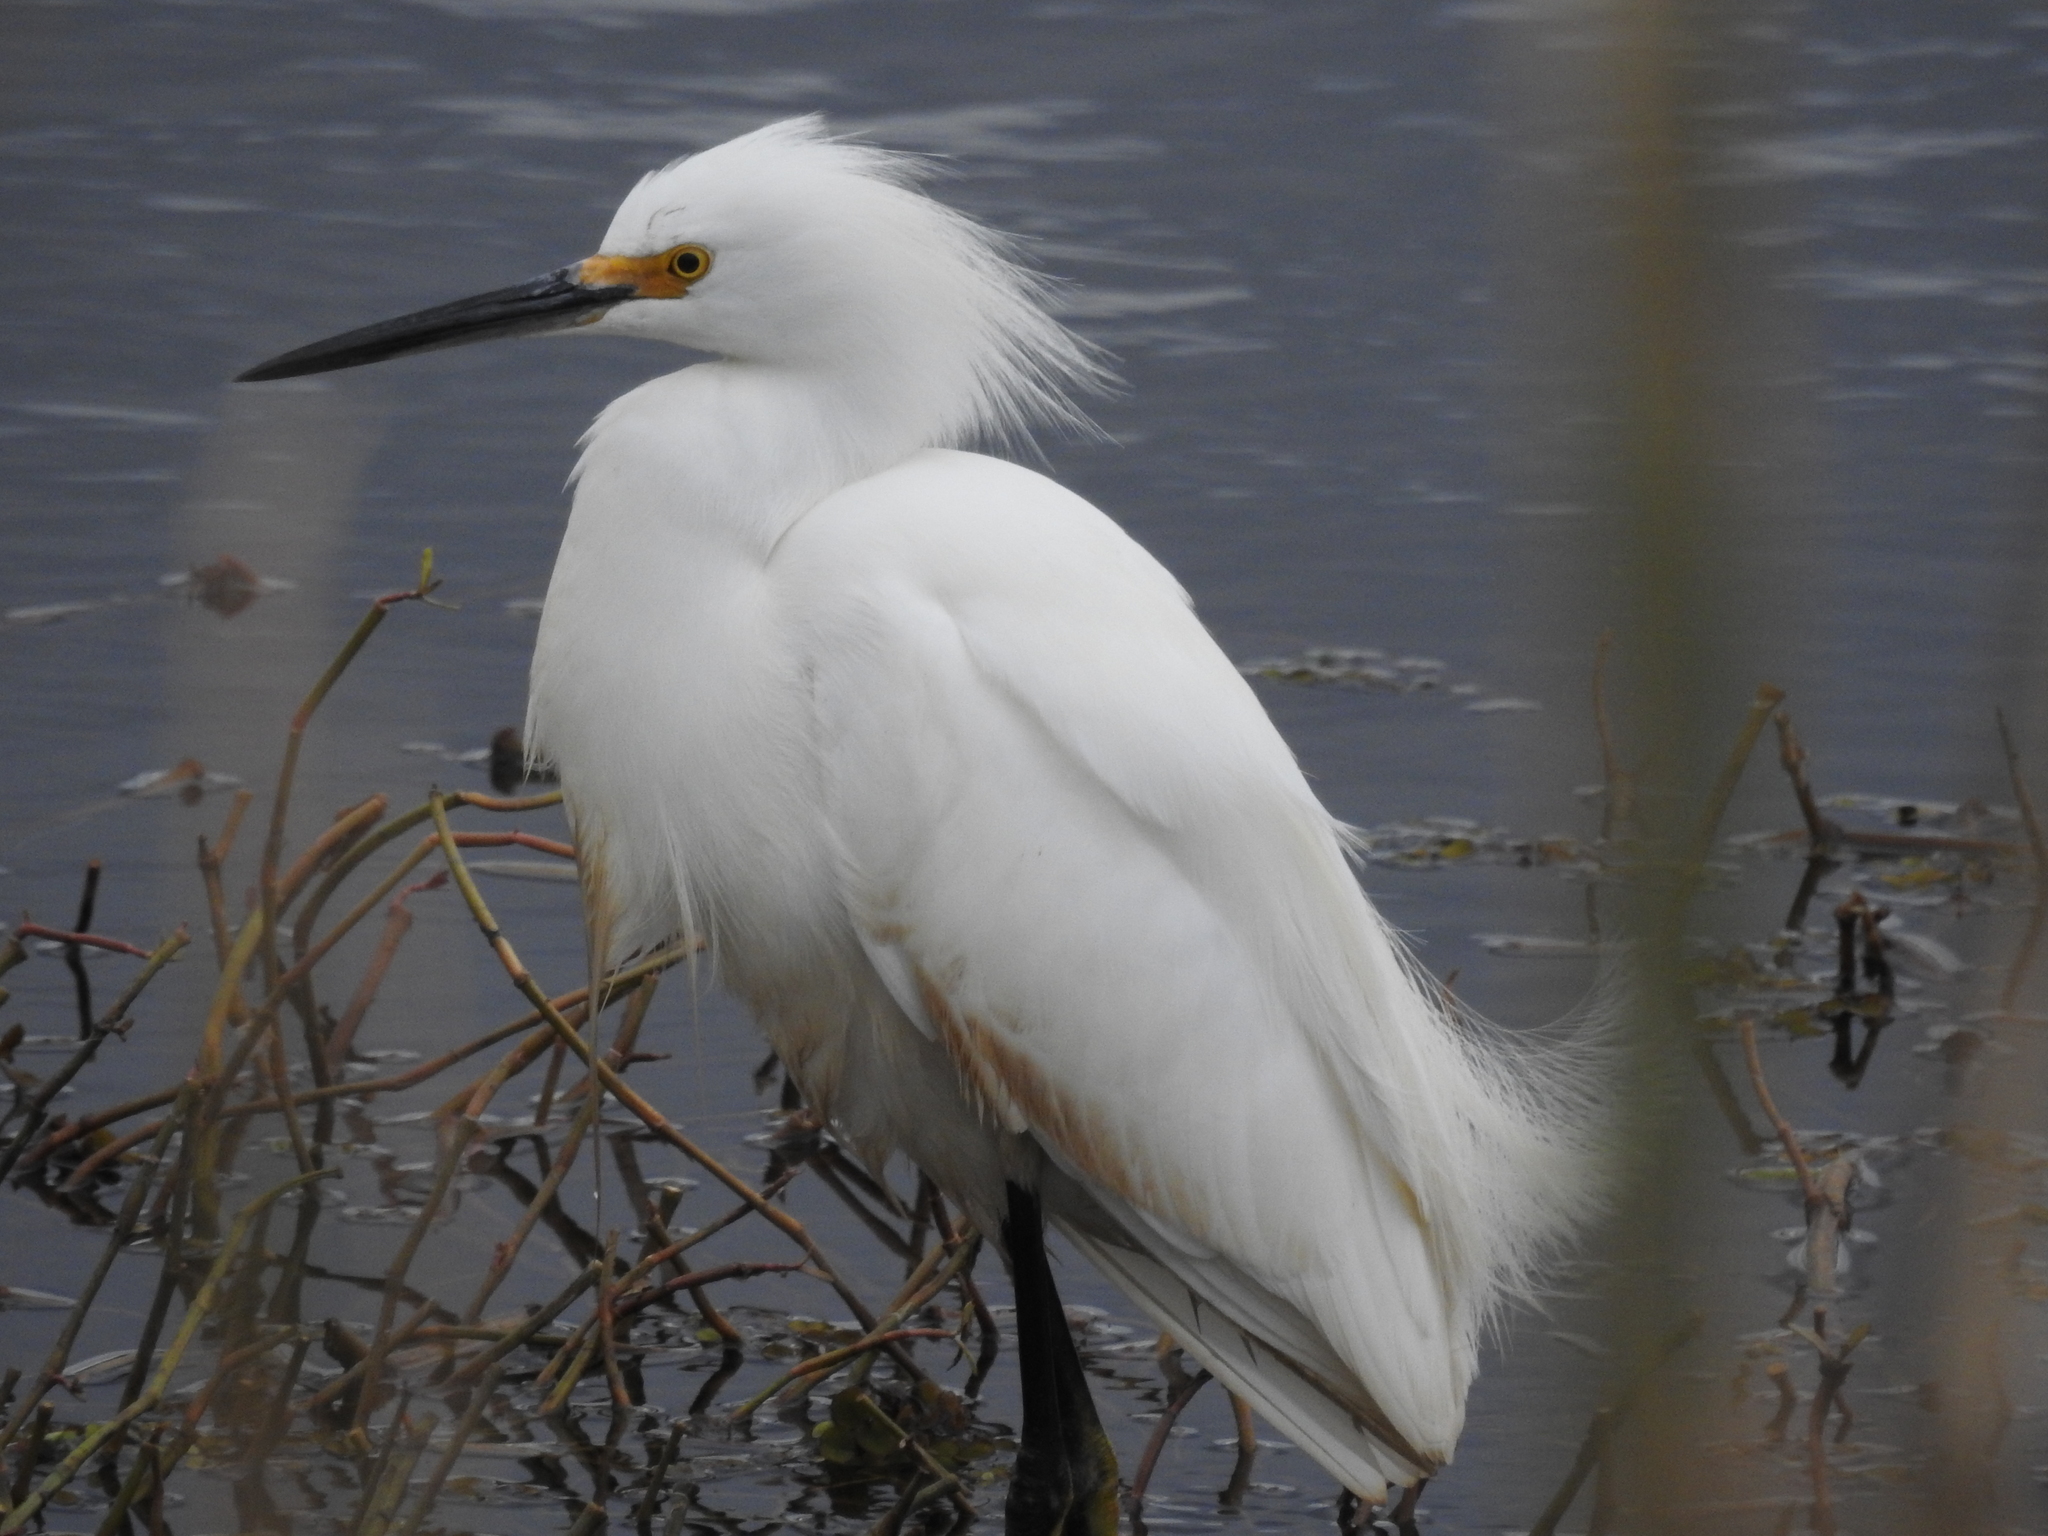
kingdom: Animalia
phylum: Chordata
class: Aves
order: Pelecaniformes
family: Ardeidae
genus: Egretta
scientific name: Egretta thula
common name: Snowy egret
